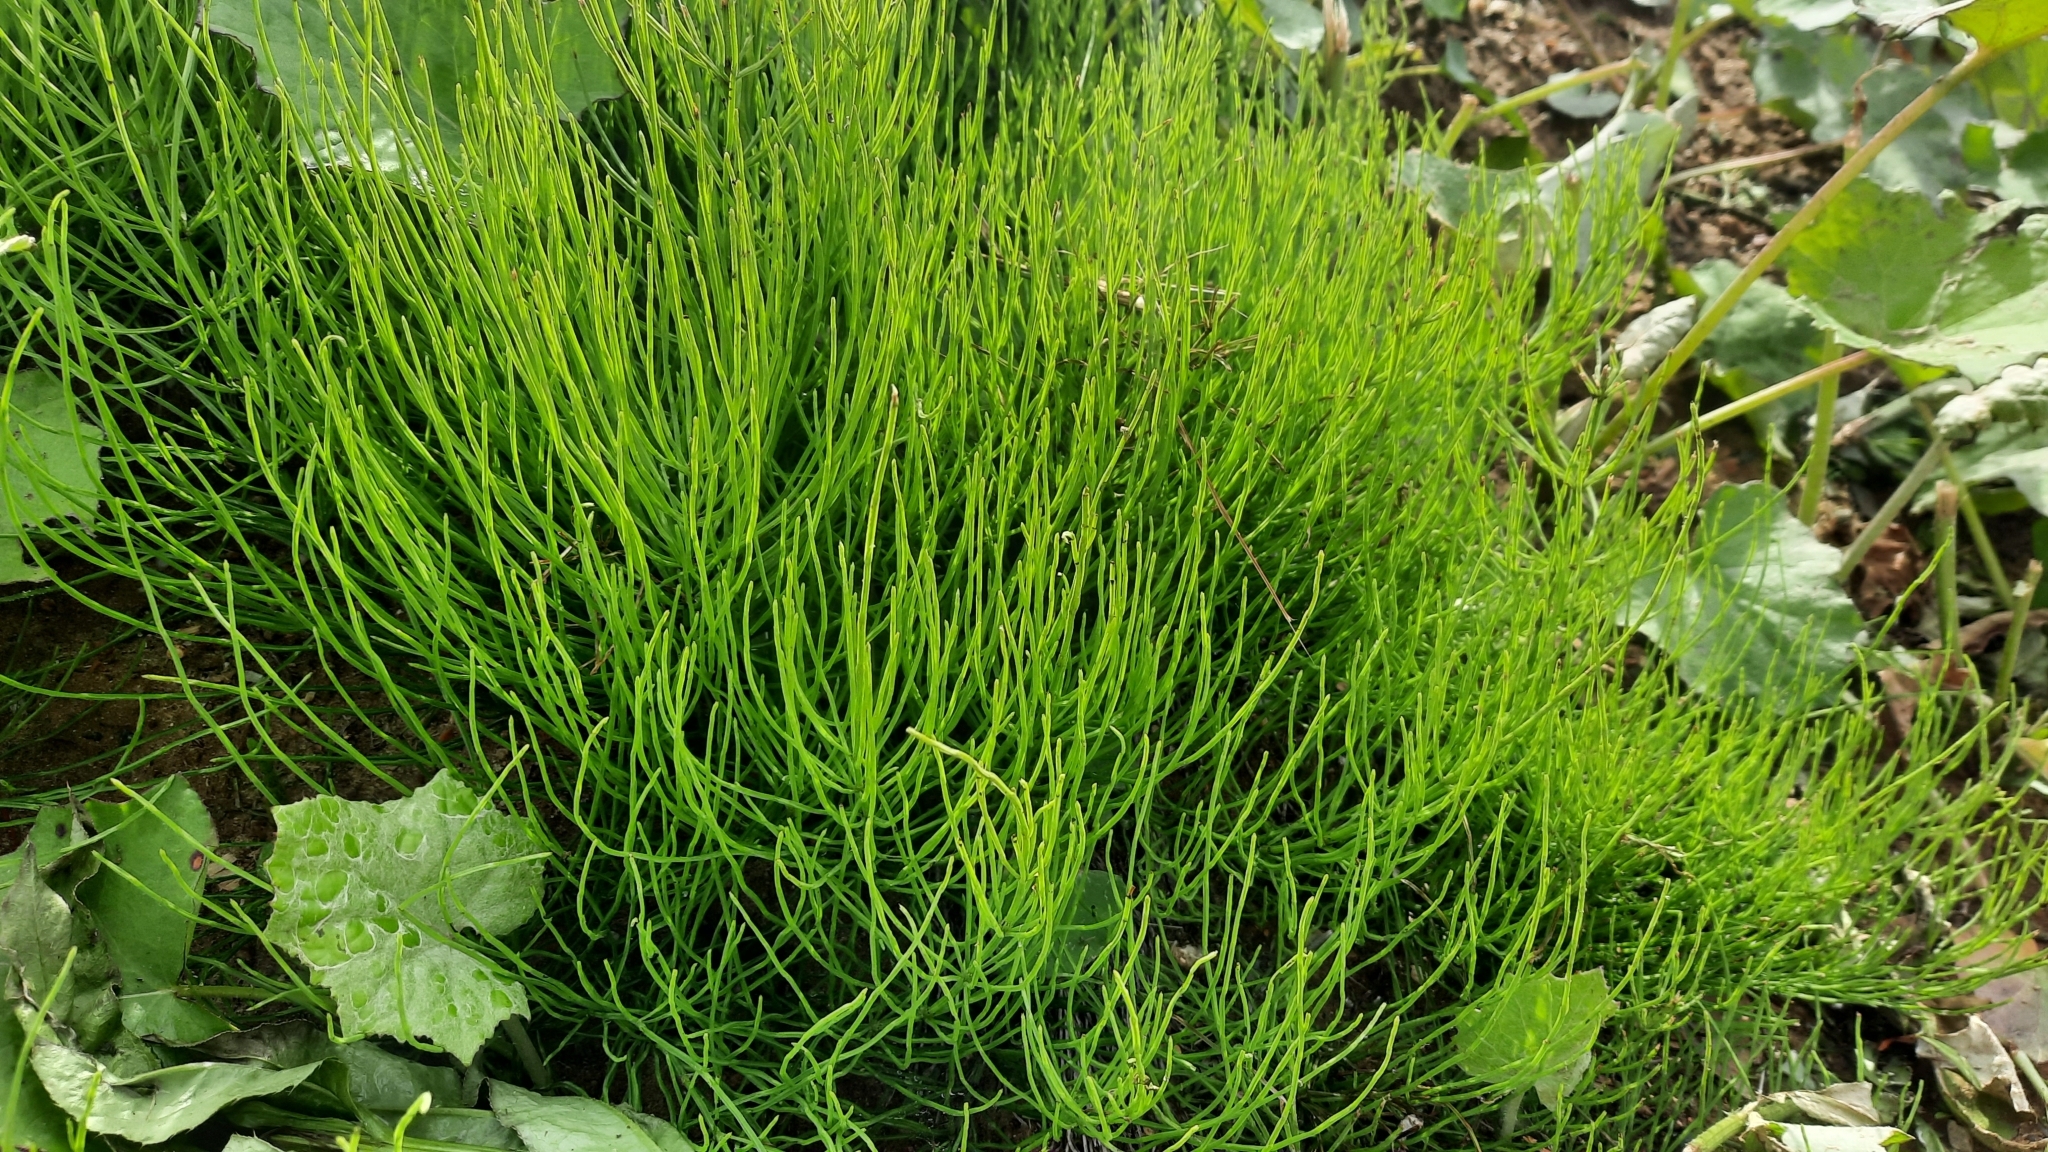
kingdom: Plantae
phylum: Tracheophyta
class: Polypodiopsida
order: Equisetales
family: Equisetaceae
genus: Equisetum
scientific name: Equisetum arvense
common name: Field horsetail
